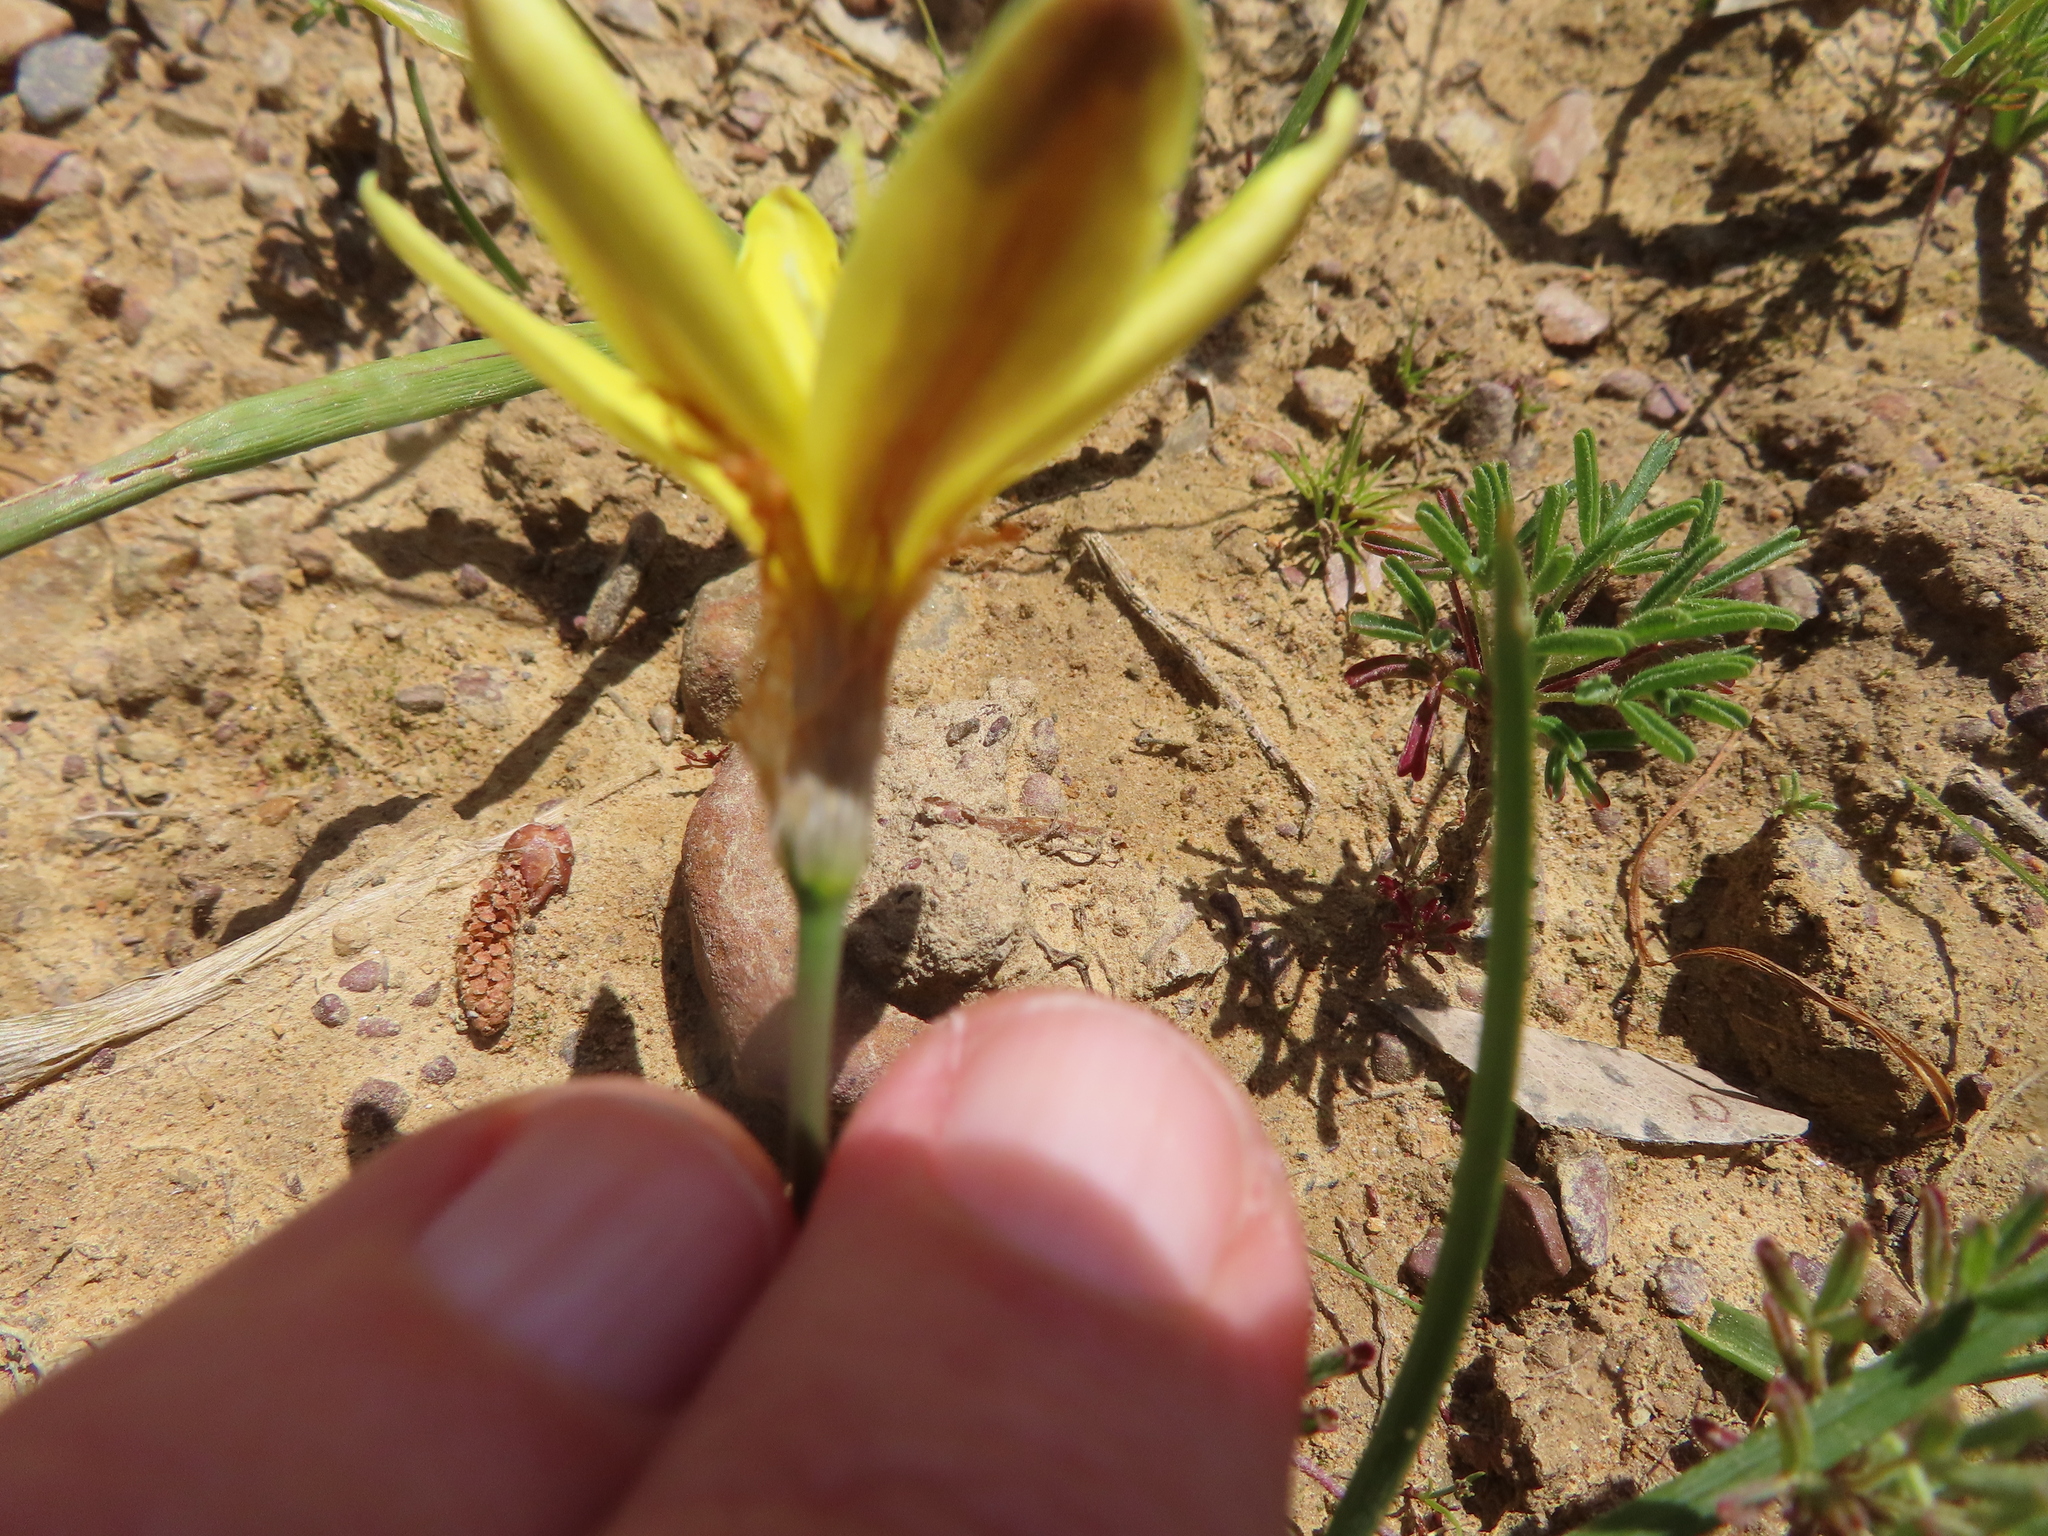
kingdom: Plantae
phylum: Tracheophyta
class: Liliopsida
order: Asparagales
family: Iridaceae
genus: Sparaxis
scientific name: Sparaxis fragrans
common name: Fragrant wandflower
